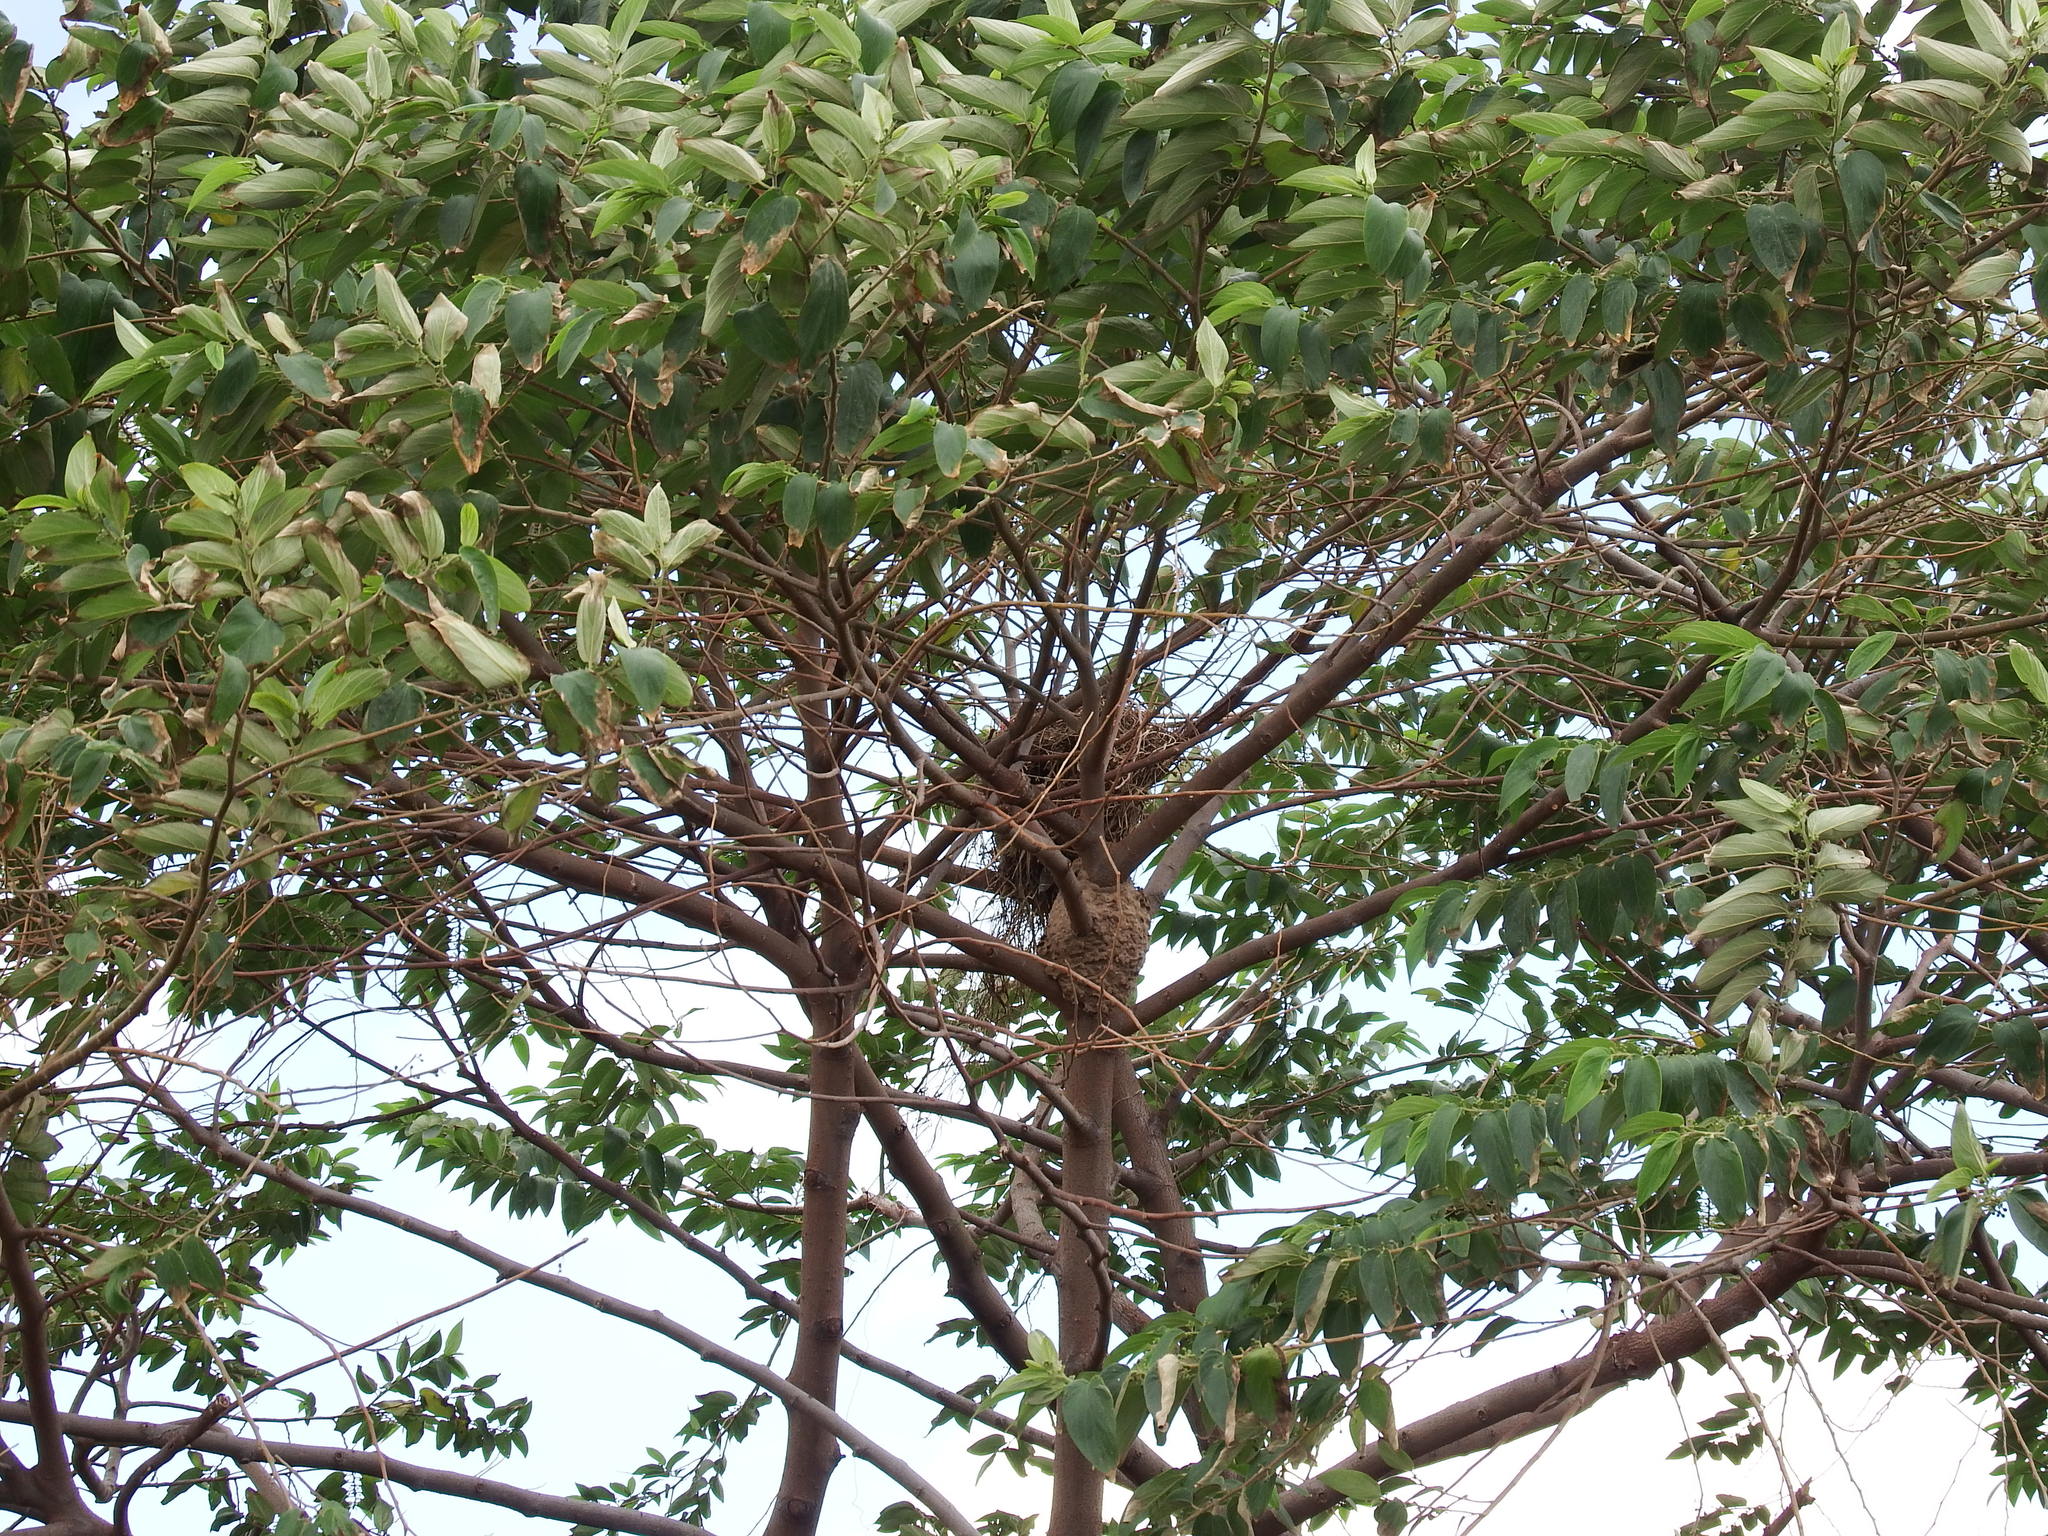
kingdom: Plantae
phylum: Tracheophyta
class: Magnoliopsida
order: Rosales
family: Cannabaceae
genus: Trema
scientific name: Trema orientale
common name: Indian charcoal tree
